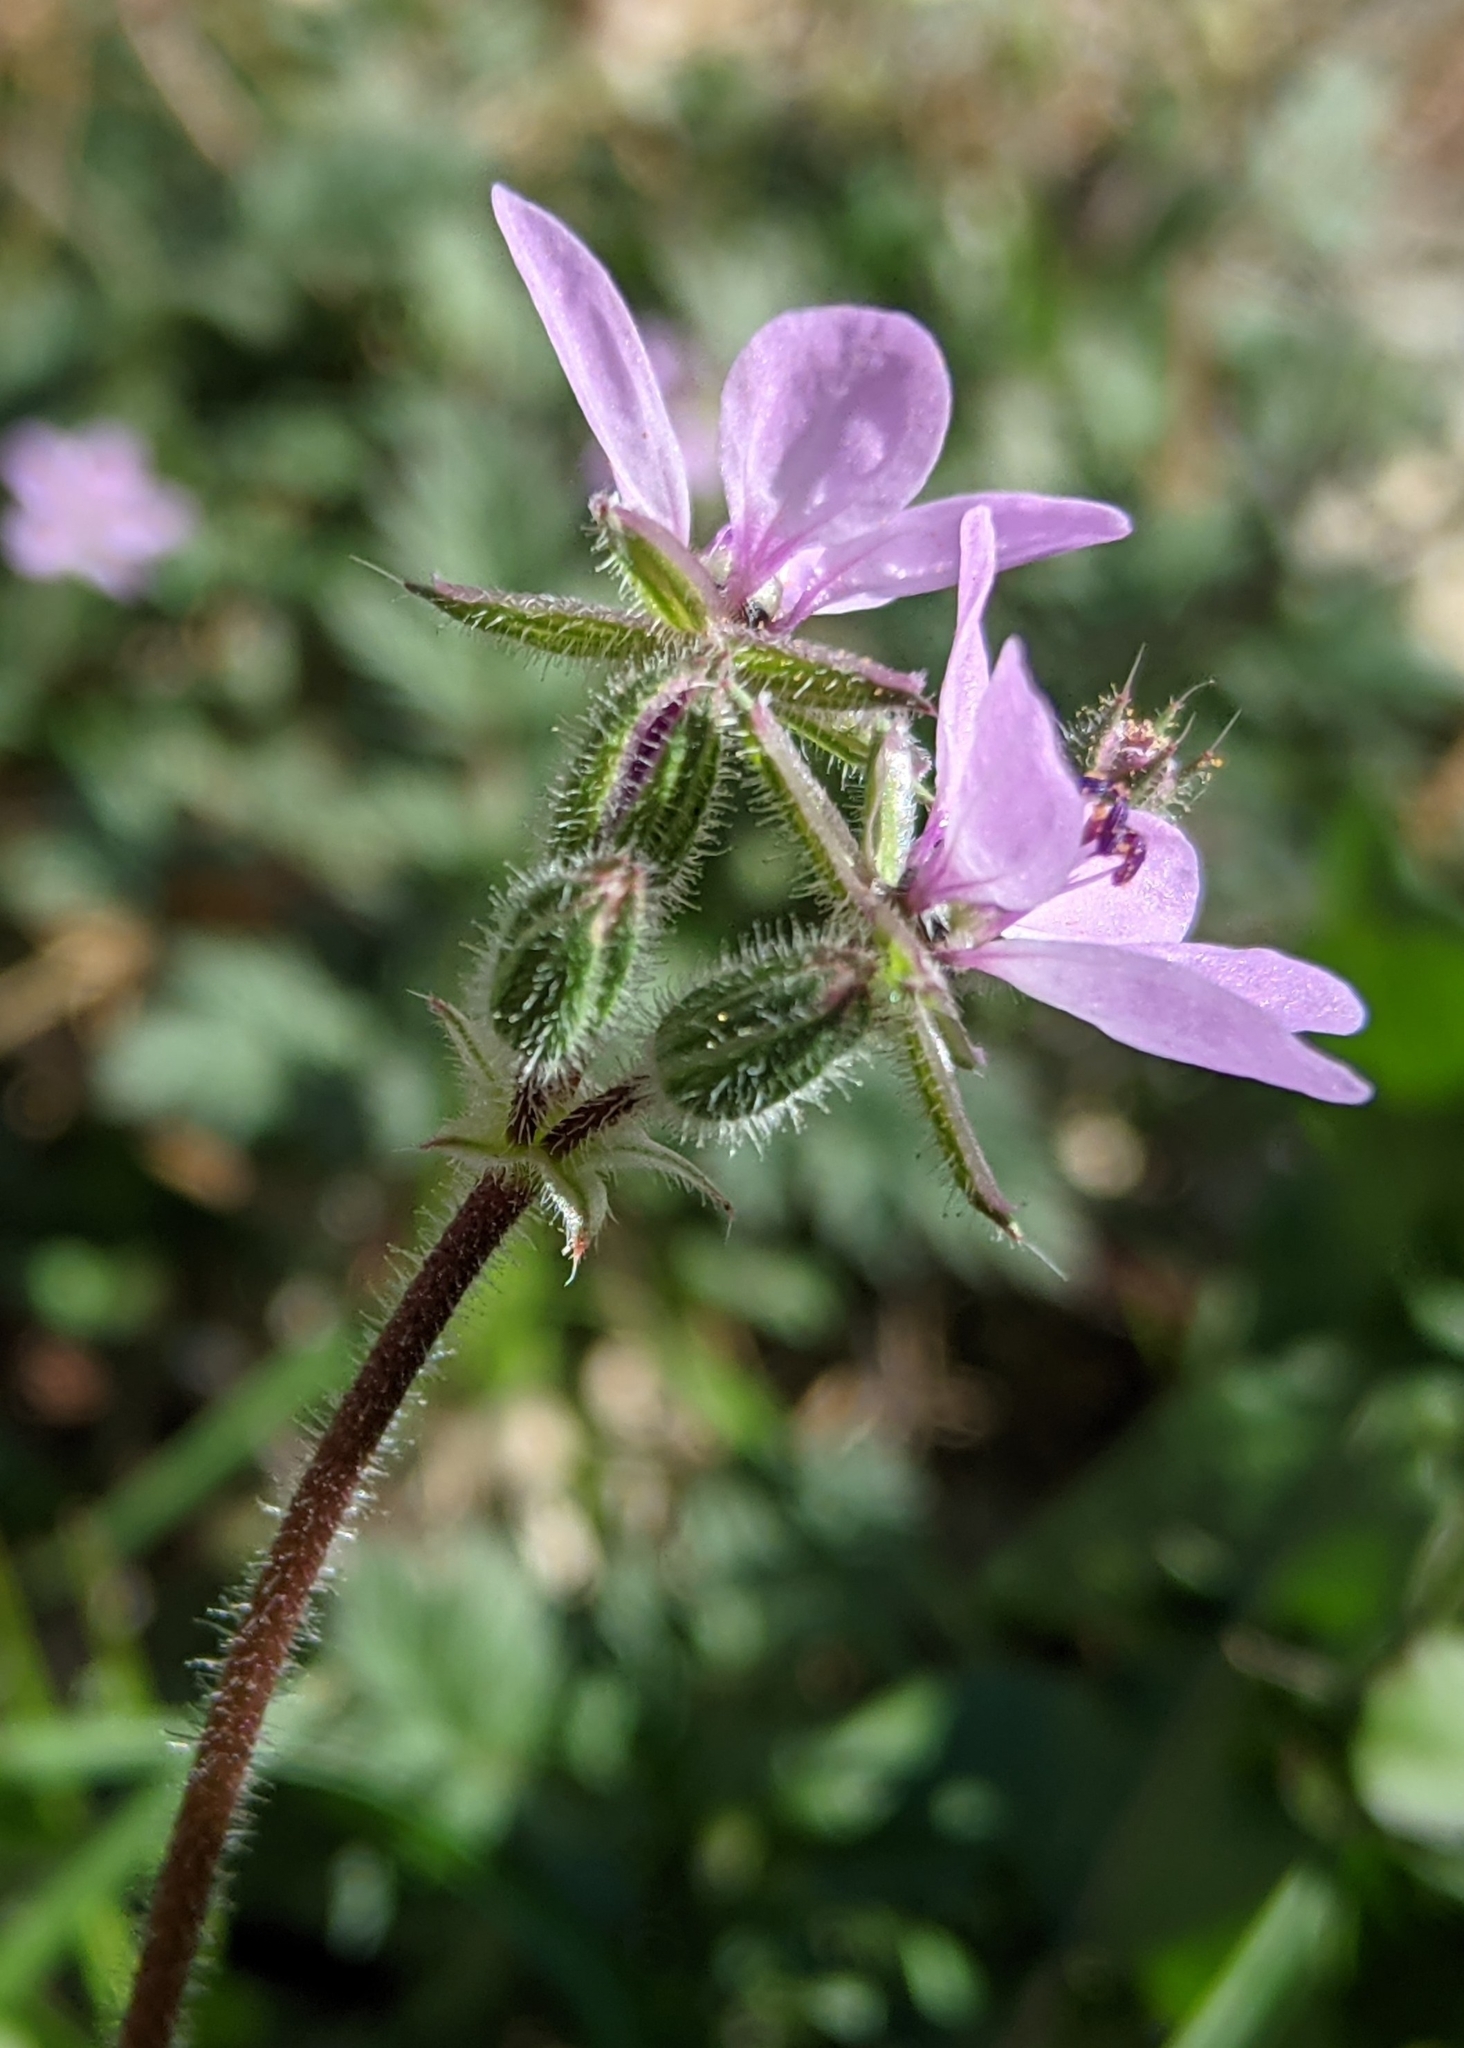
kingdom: Plantae
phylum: Tracheophyta
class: Magnoliopsida
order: Geraniales
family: Geraniaceae
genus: Erodium
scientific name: Erodium cicutarium
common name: Common stork's-bill
